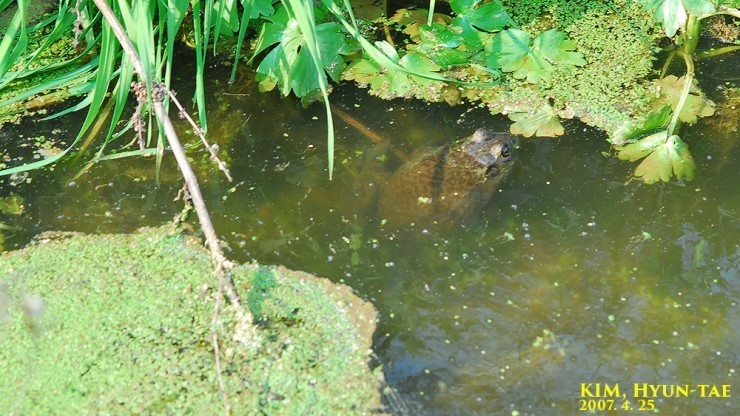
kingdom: Animalia
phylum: Chordata
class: Amphibia
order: Anura
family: Ranidae
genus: Lithobates
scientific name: Lithobates catesbeianus
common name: American bullfrog
